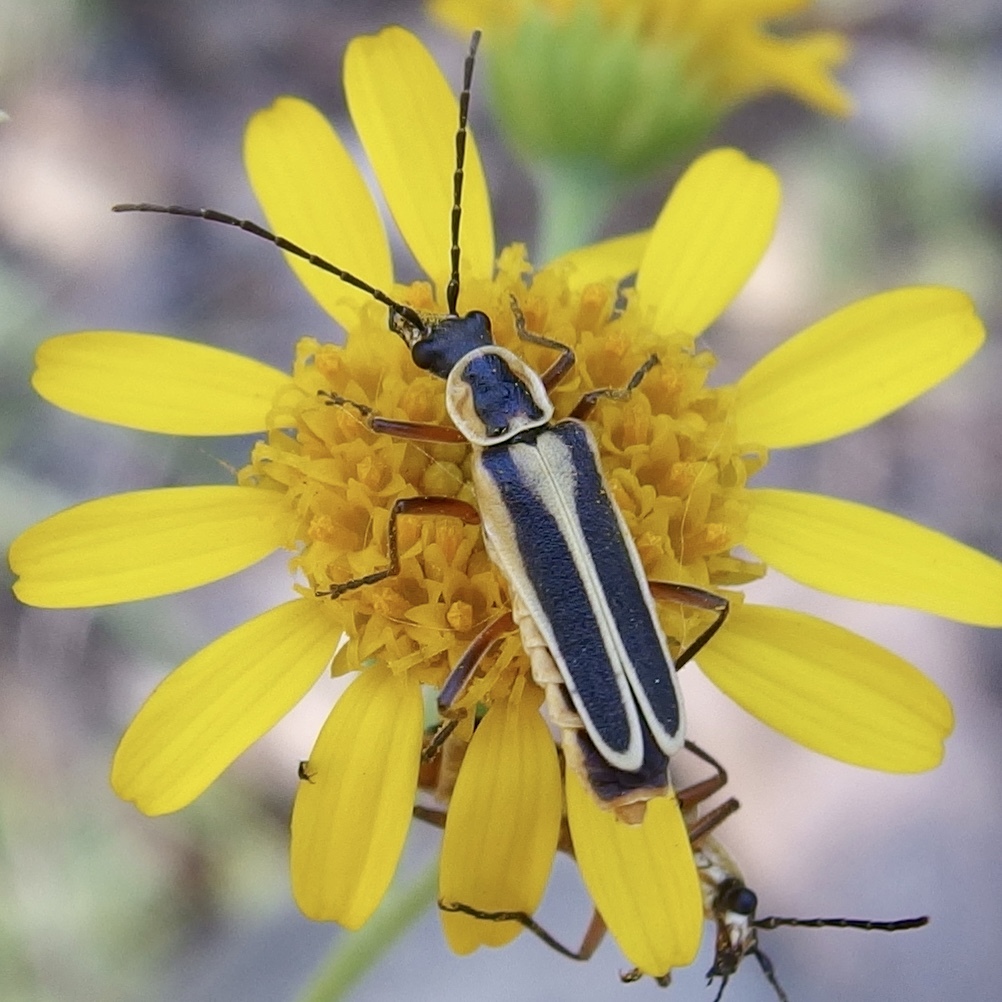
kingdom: Animalia
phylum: Arthropoda
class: Insecta
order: Coleoptera
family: Cantharidae
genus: Chauliognathus
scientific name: Chauliognathus lewisi
